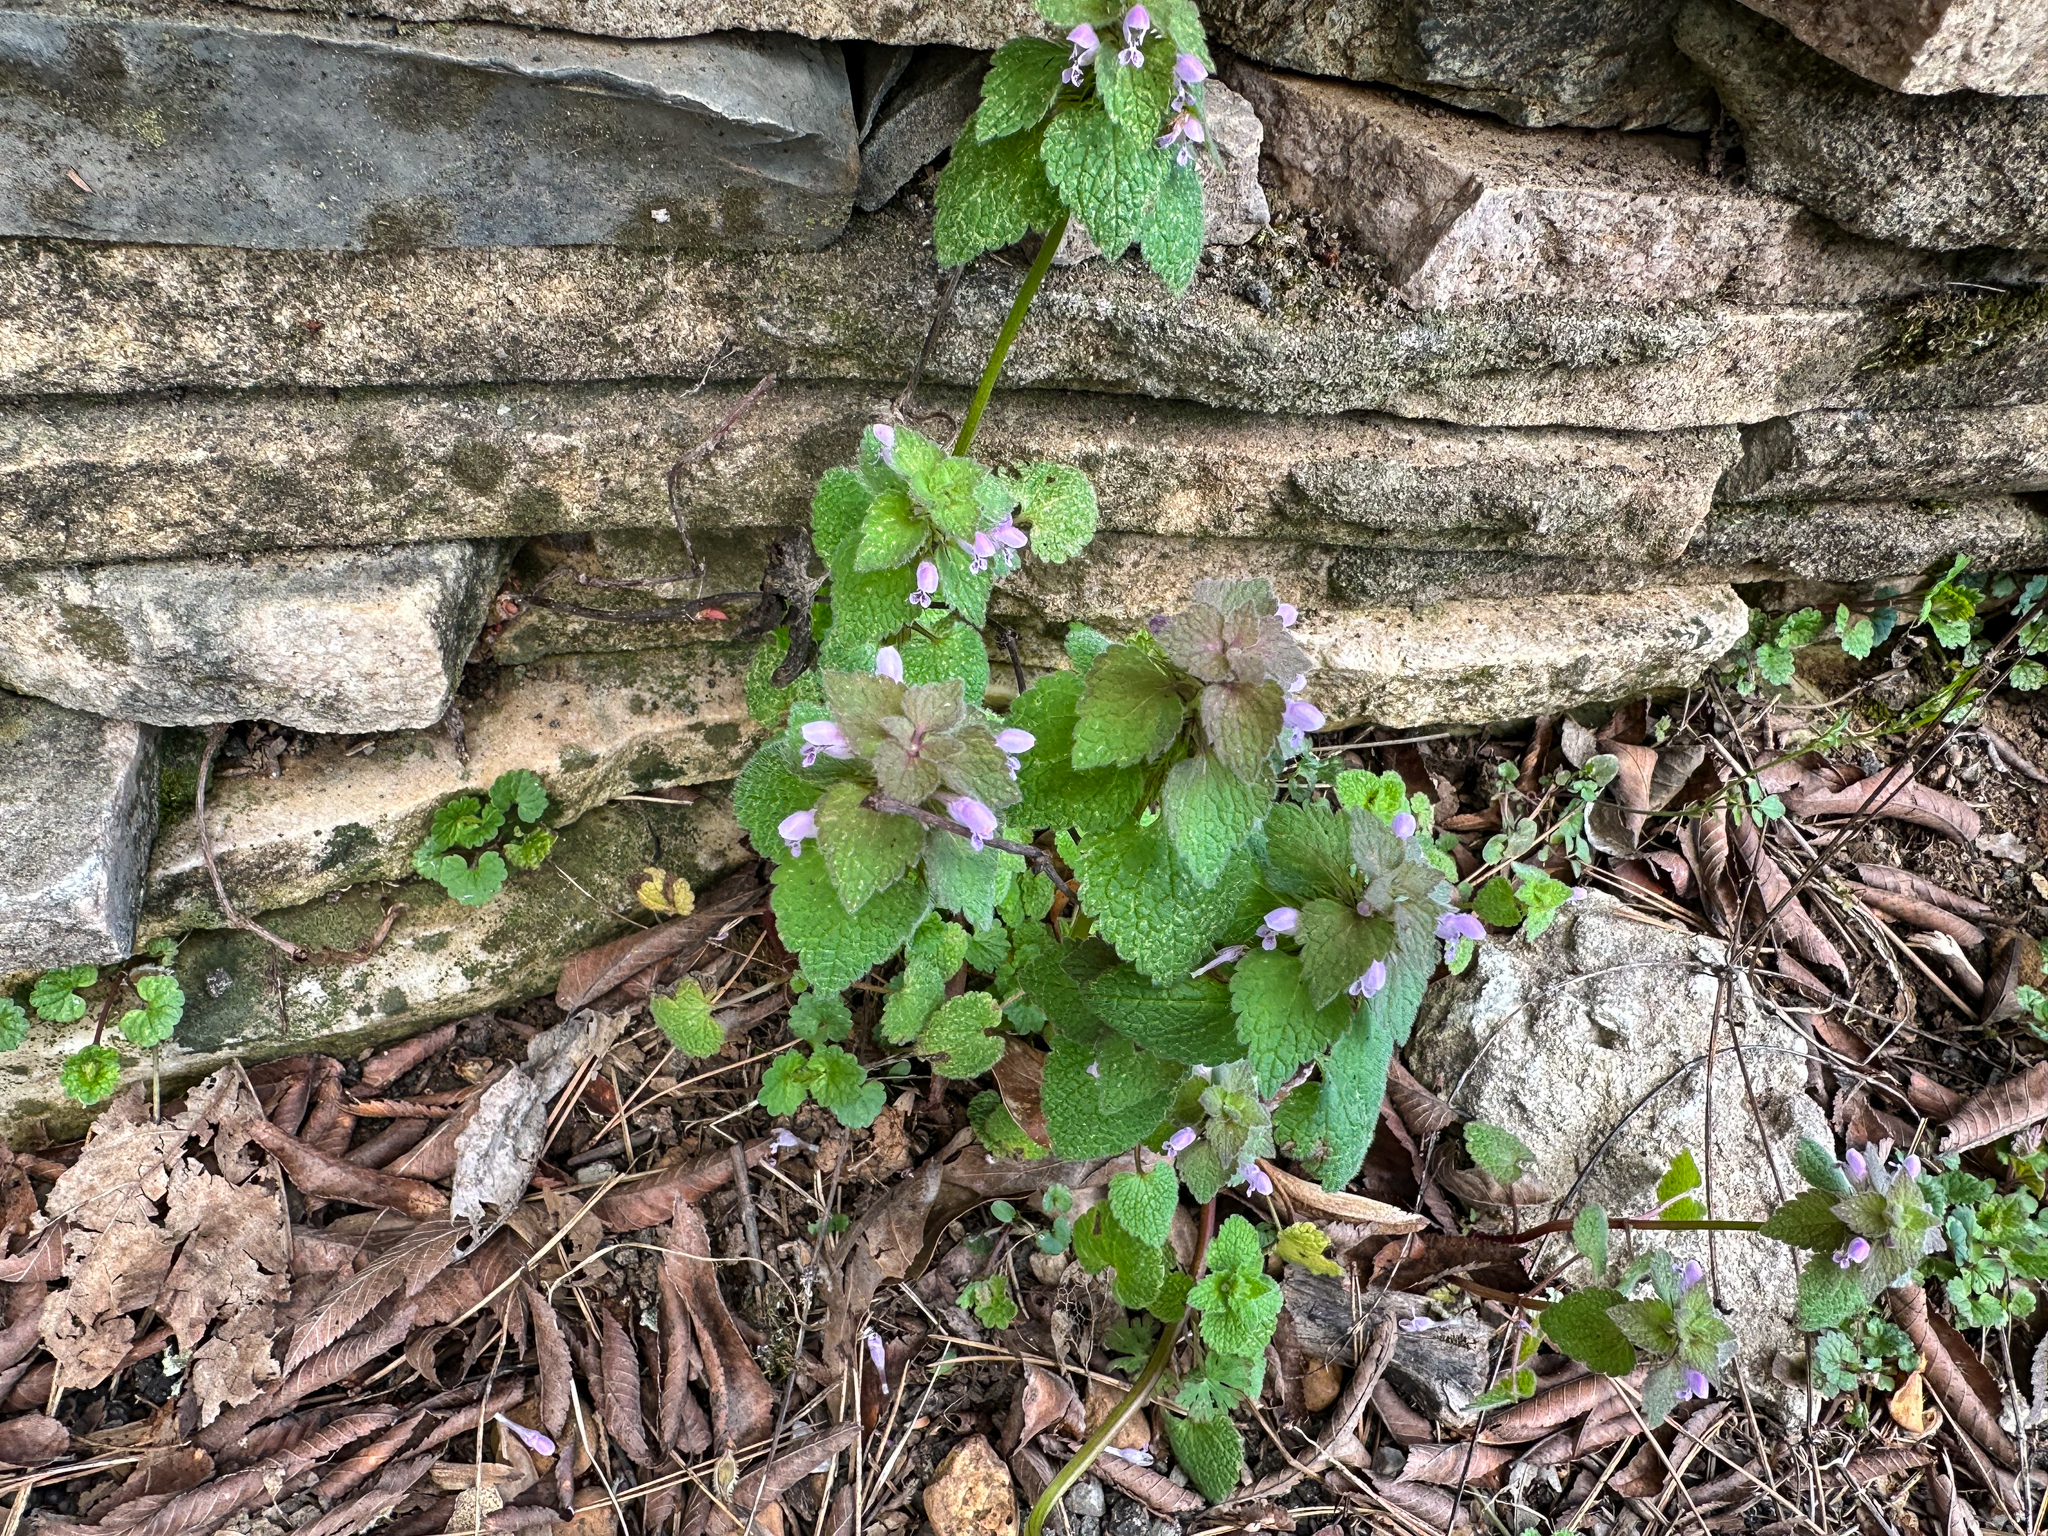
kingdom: Plantae
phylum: Tracheophyta
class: Magnoliopsida
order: Lamiales
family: Lamiaceae
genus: Lamium
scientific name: Lamium purpureum
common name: Red dead-nettle
